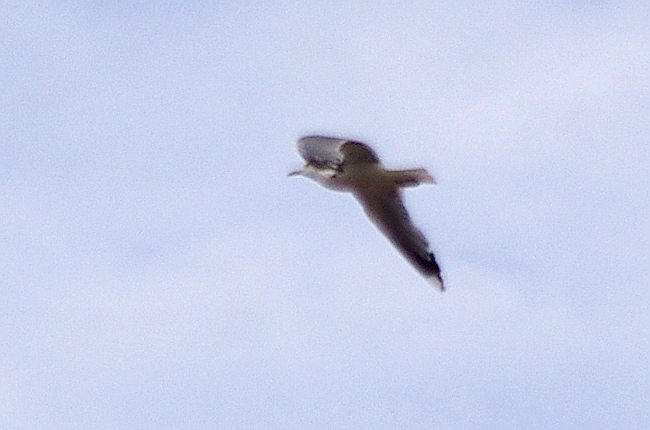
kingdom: Animalia
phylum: Chordata
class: Aves
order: Charadriiformes
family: Laridae
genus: Larus
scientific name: Larus canus
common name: Mew gull
